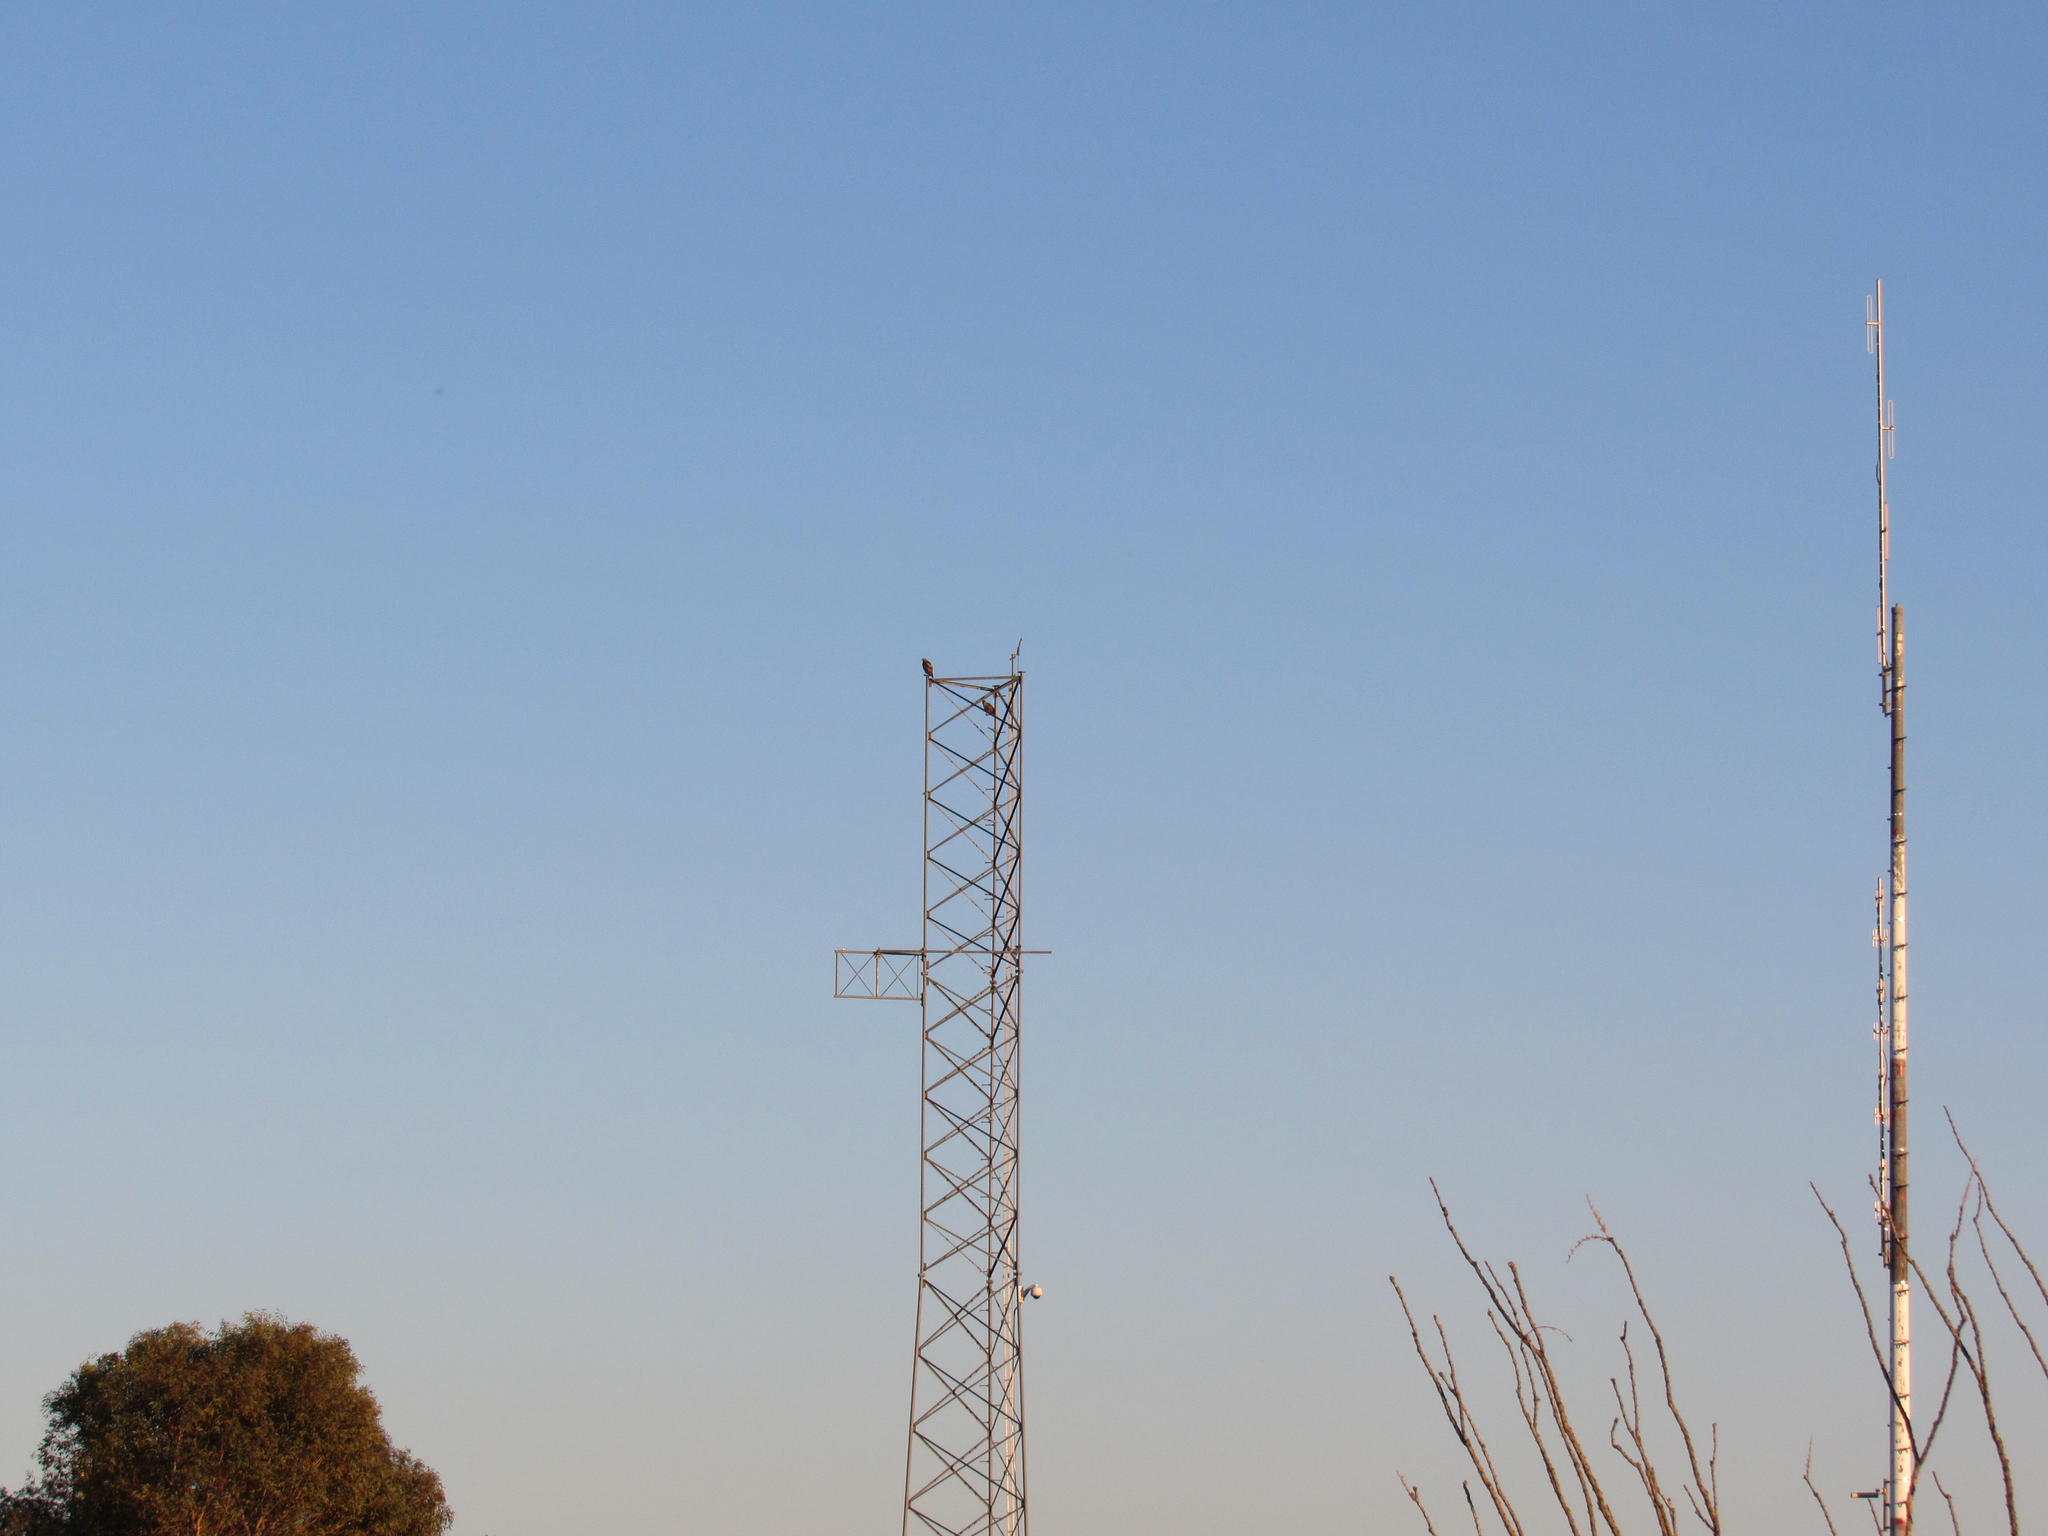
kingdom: Animalia
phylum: Chordata
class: Aves
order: Accipitriformes
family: Accipitridae
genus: Buteo
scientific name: Buteo jamaicensis
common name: Red-tailed hawk
